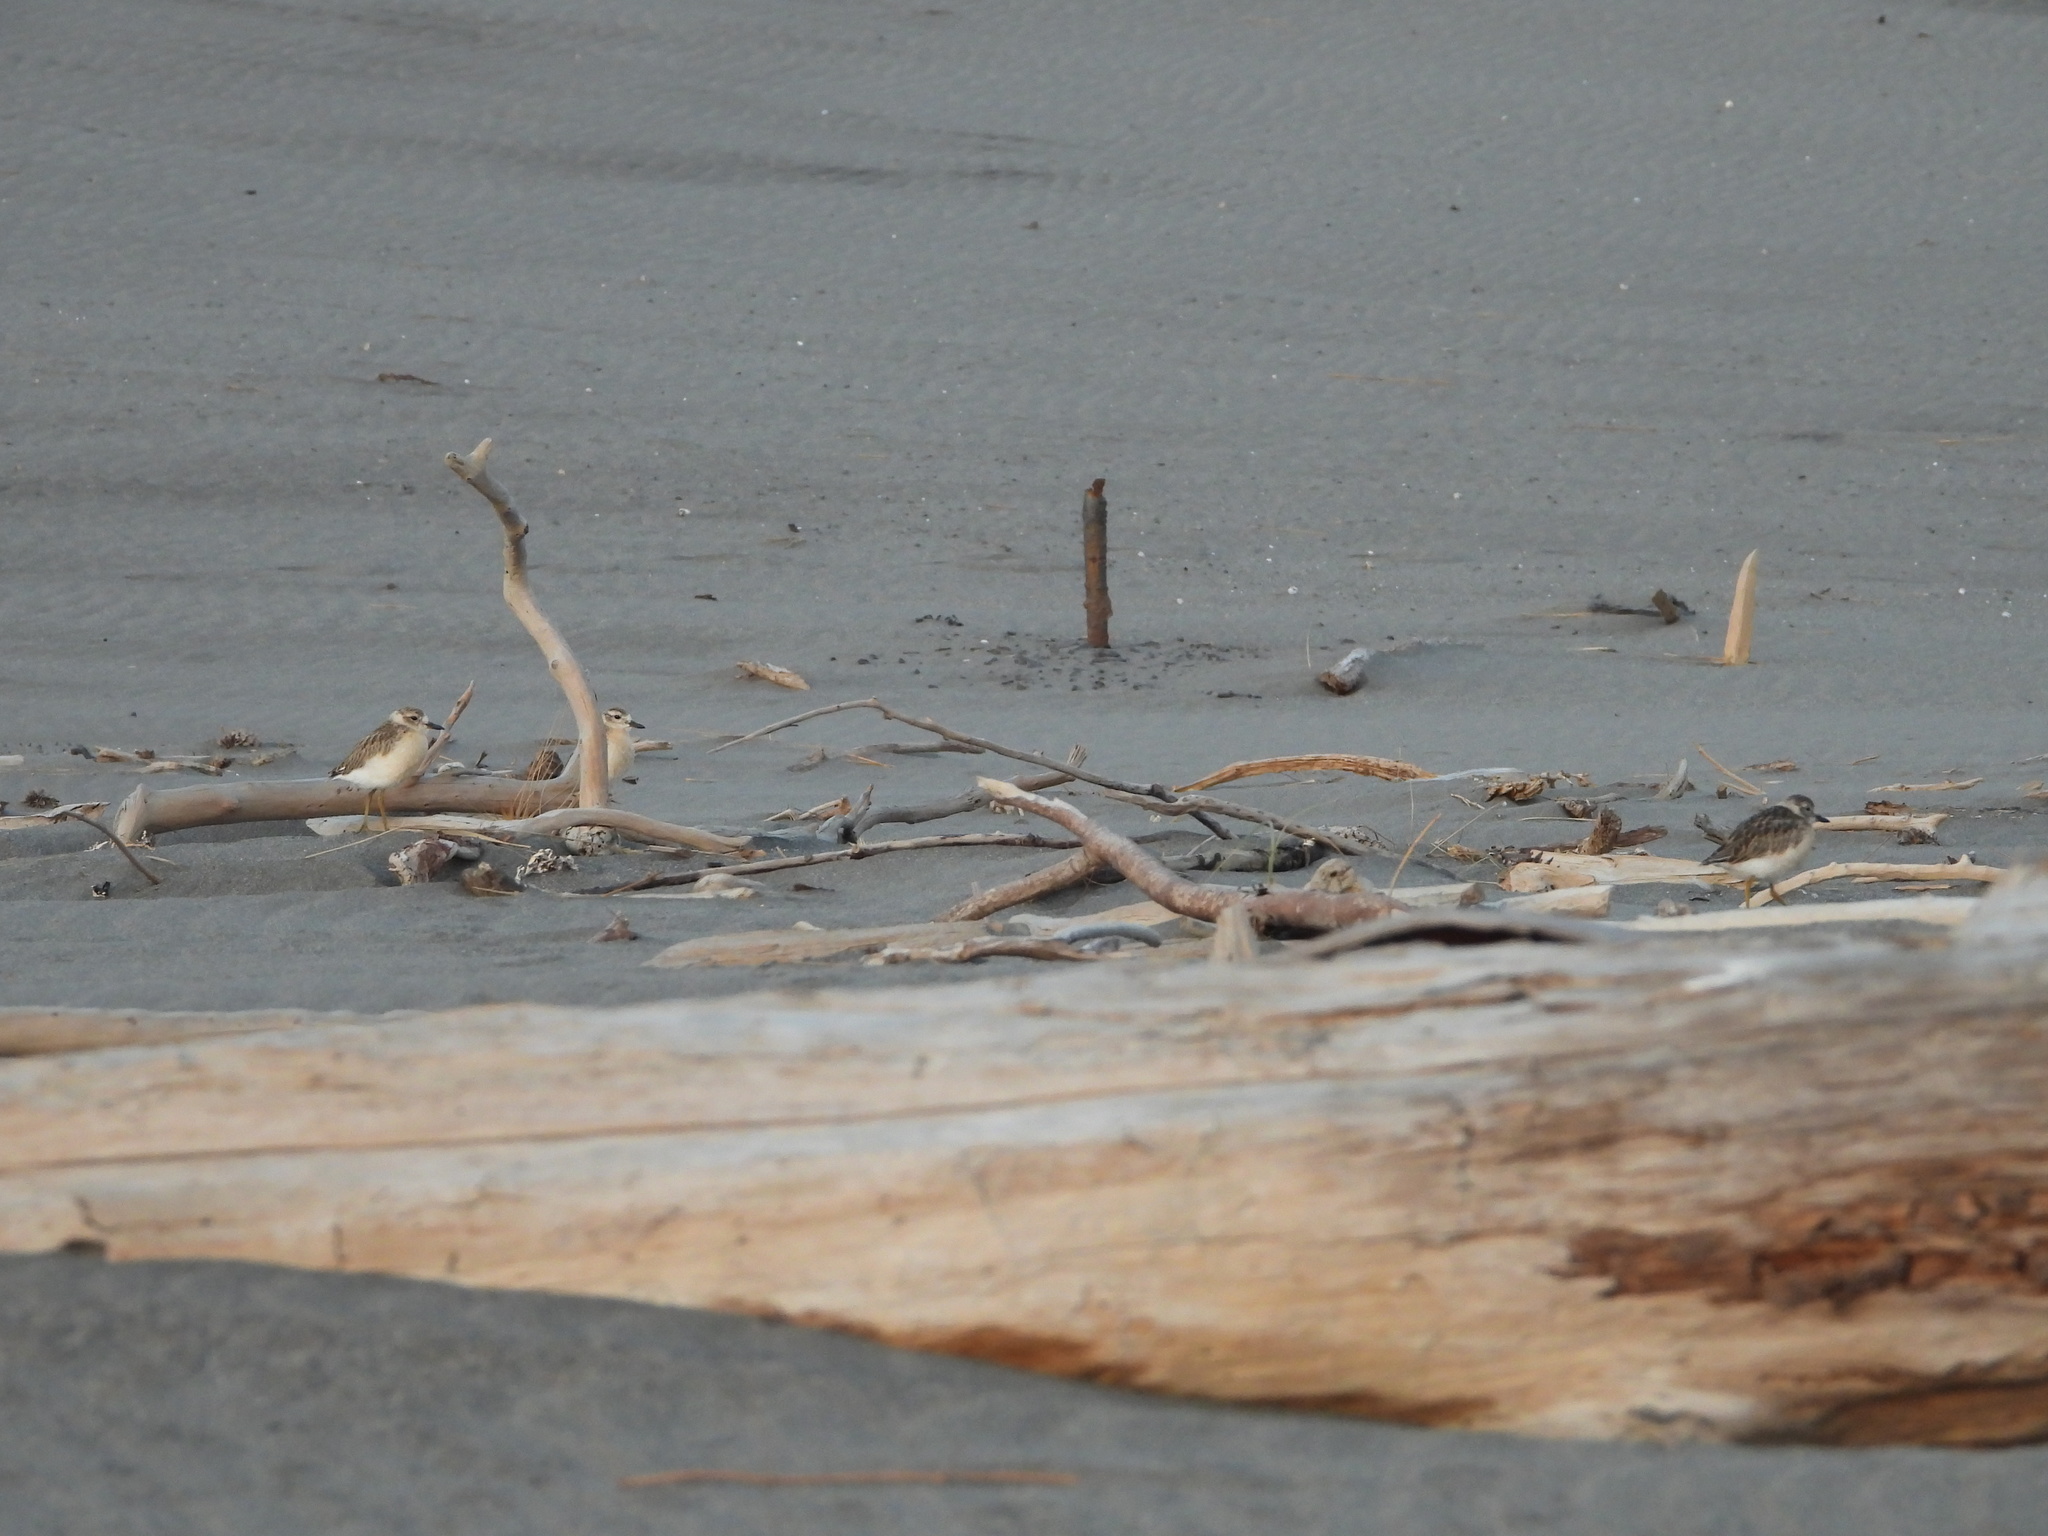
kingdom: Animalia
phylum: Chordata
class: Aves
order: Charadriiformes
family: Charadriidae
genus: Anarhynchus
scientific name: Anarhynchus
